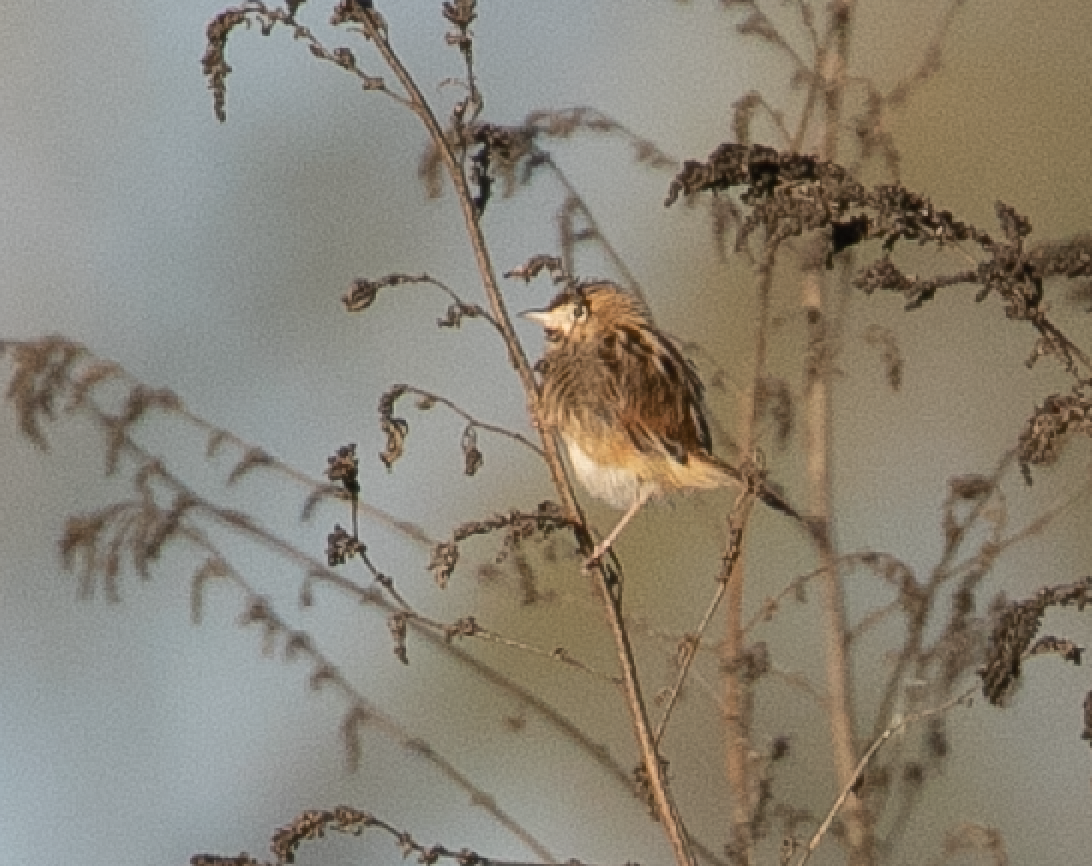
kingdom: Animalia
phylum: Chordata
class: Aves
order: Passeriformes
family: Cisticolidae
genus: Cisticola
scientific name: Cisticola juncidis
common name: Zitting cisticola
